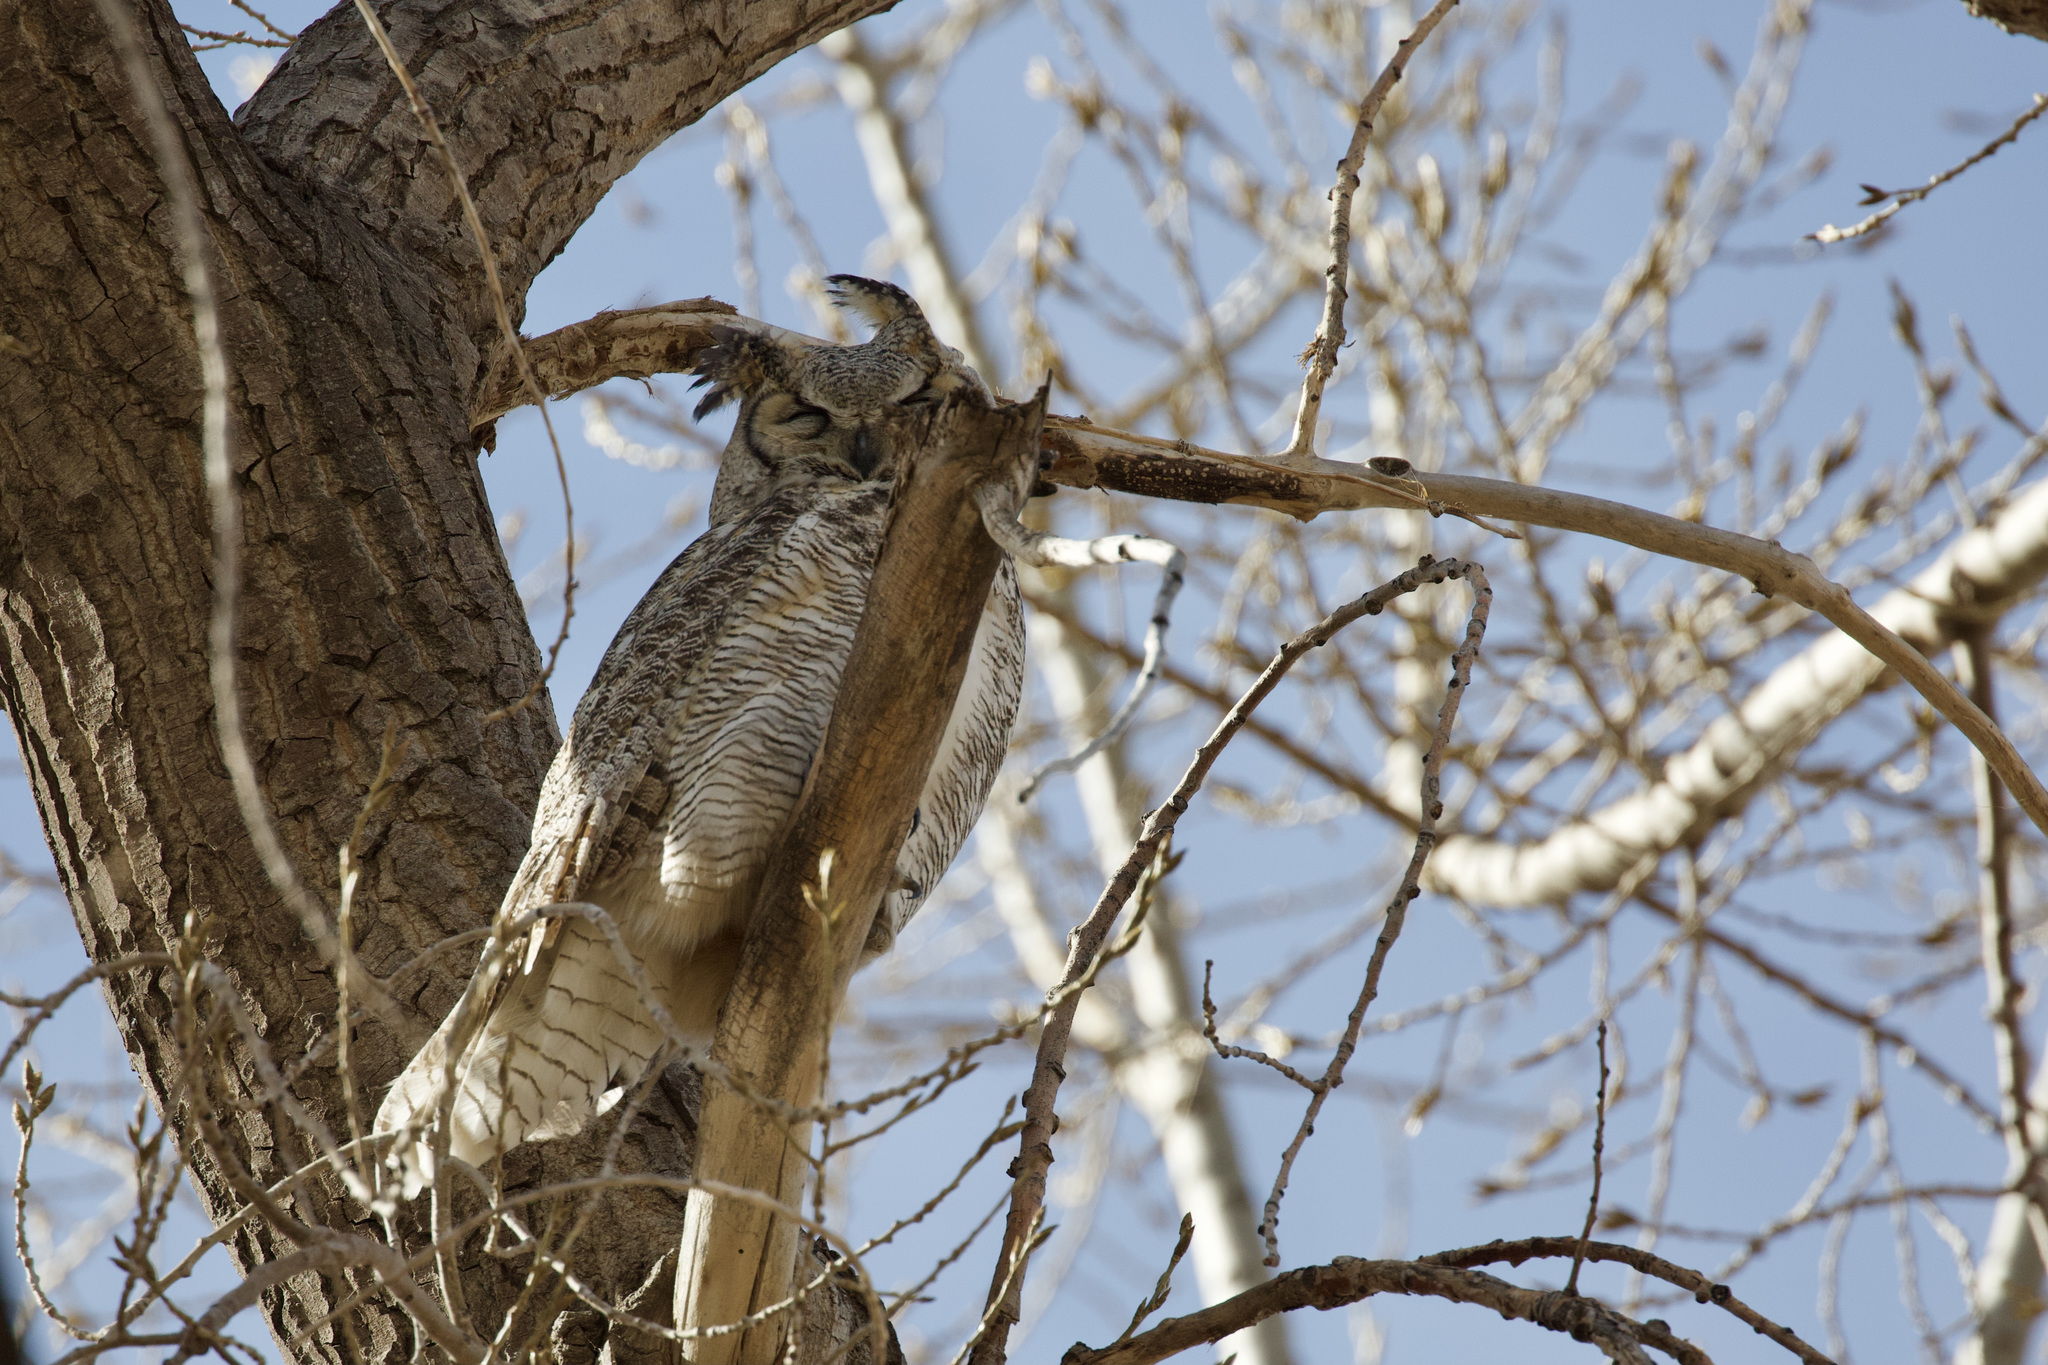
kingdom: Animalia
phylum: Chordata
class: Aves
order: Strigiformes
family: Strigidae
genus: Bubo
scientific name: Bubo virginianus
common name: Great horned owl
